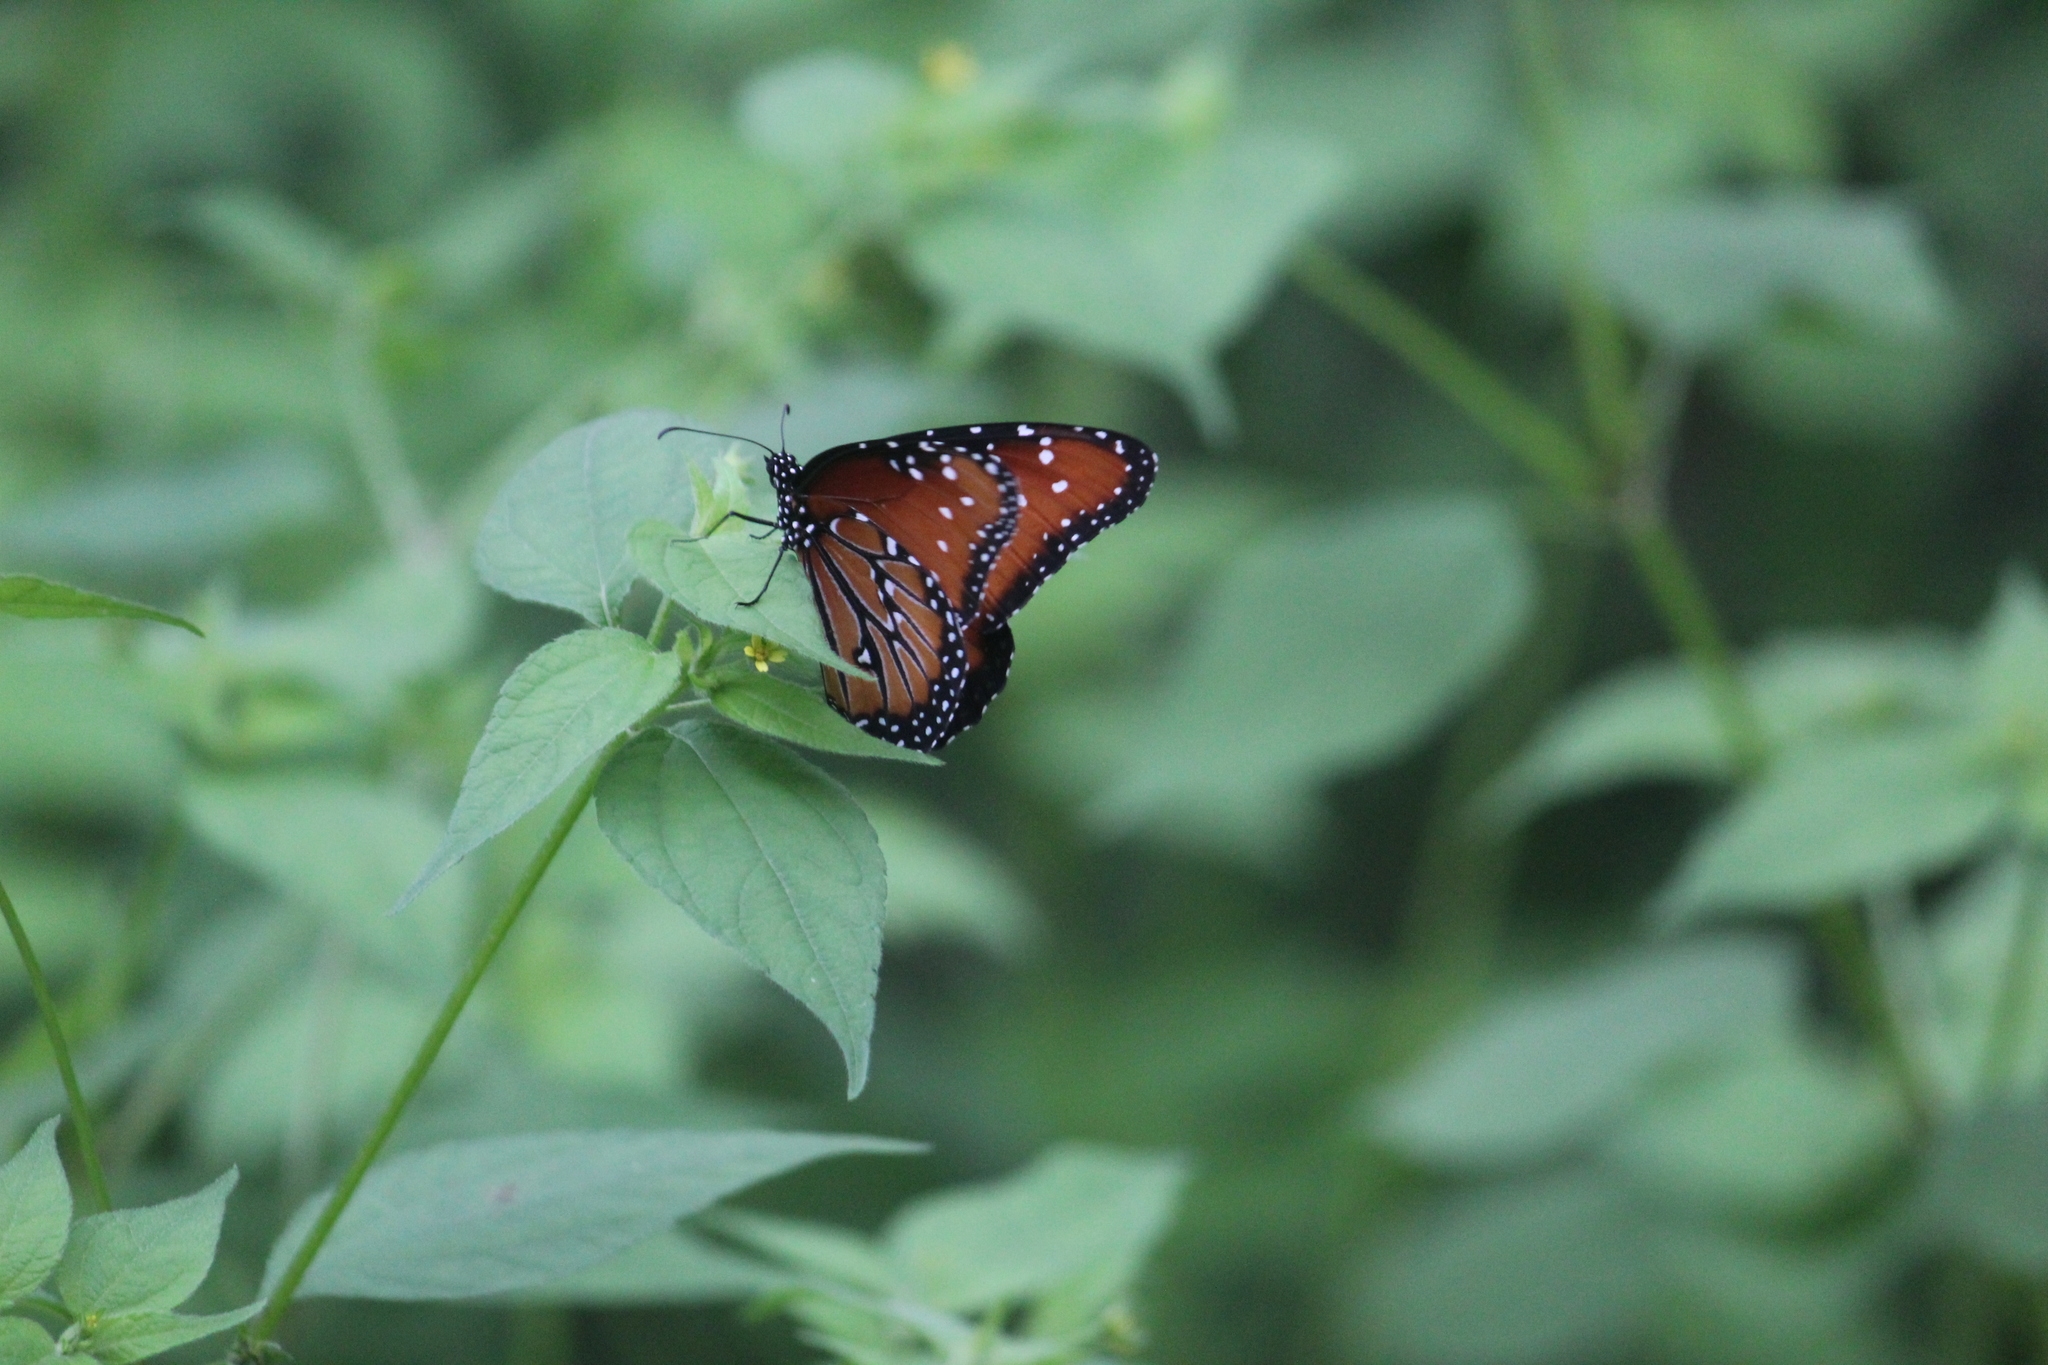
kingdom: Animalia
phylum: Arthropoda
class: Insecta
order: Lepidoptera
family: Nymphalidae
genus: Danaus
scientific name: Danaus gilippus
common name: Queen
